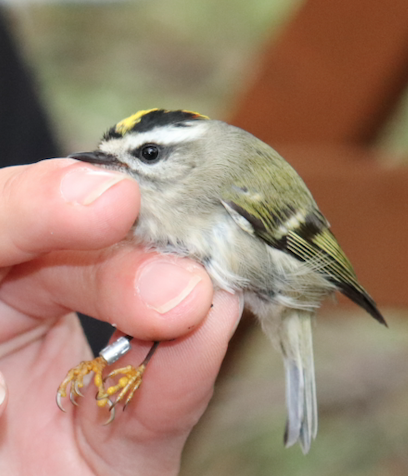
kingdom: Animalia
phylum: Chordata
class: Aves
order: Passeriformes
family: Regulidae
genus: Regulus
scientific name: Regulus satrapa
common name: Golden-crowned kinglet
